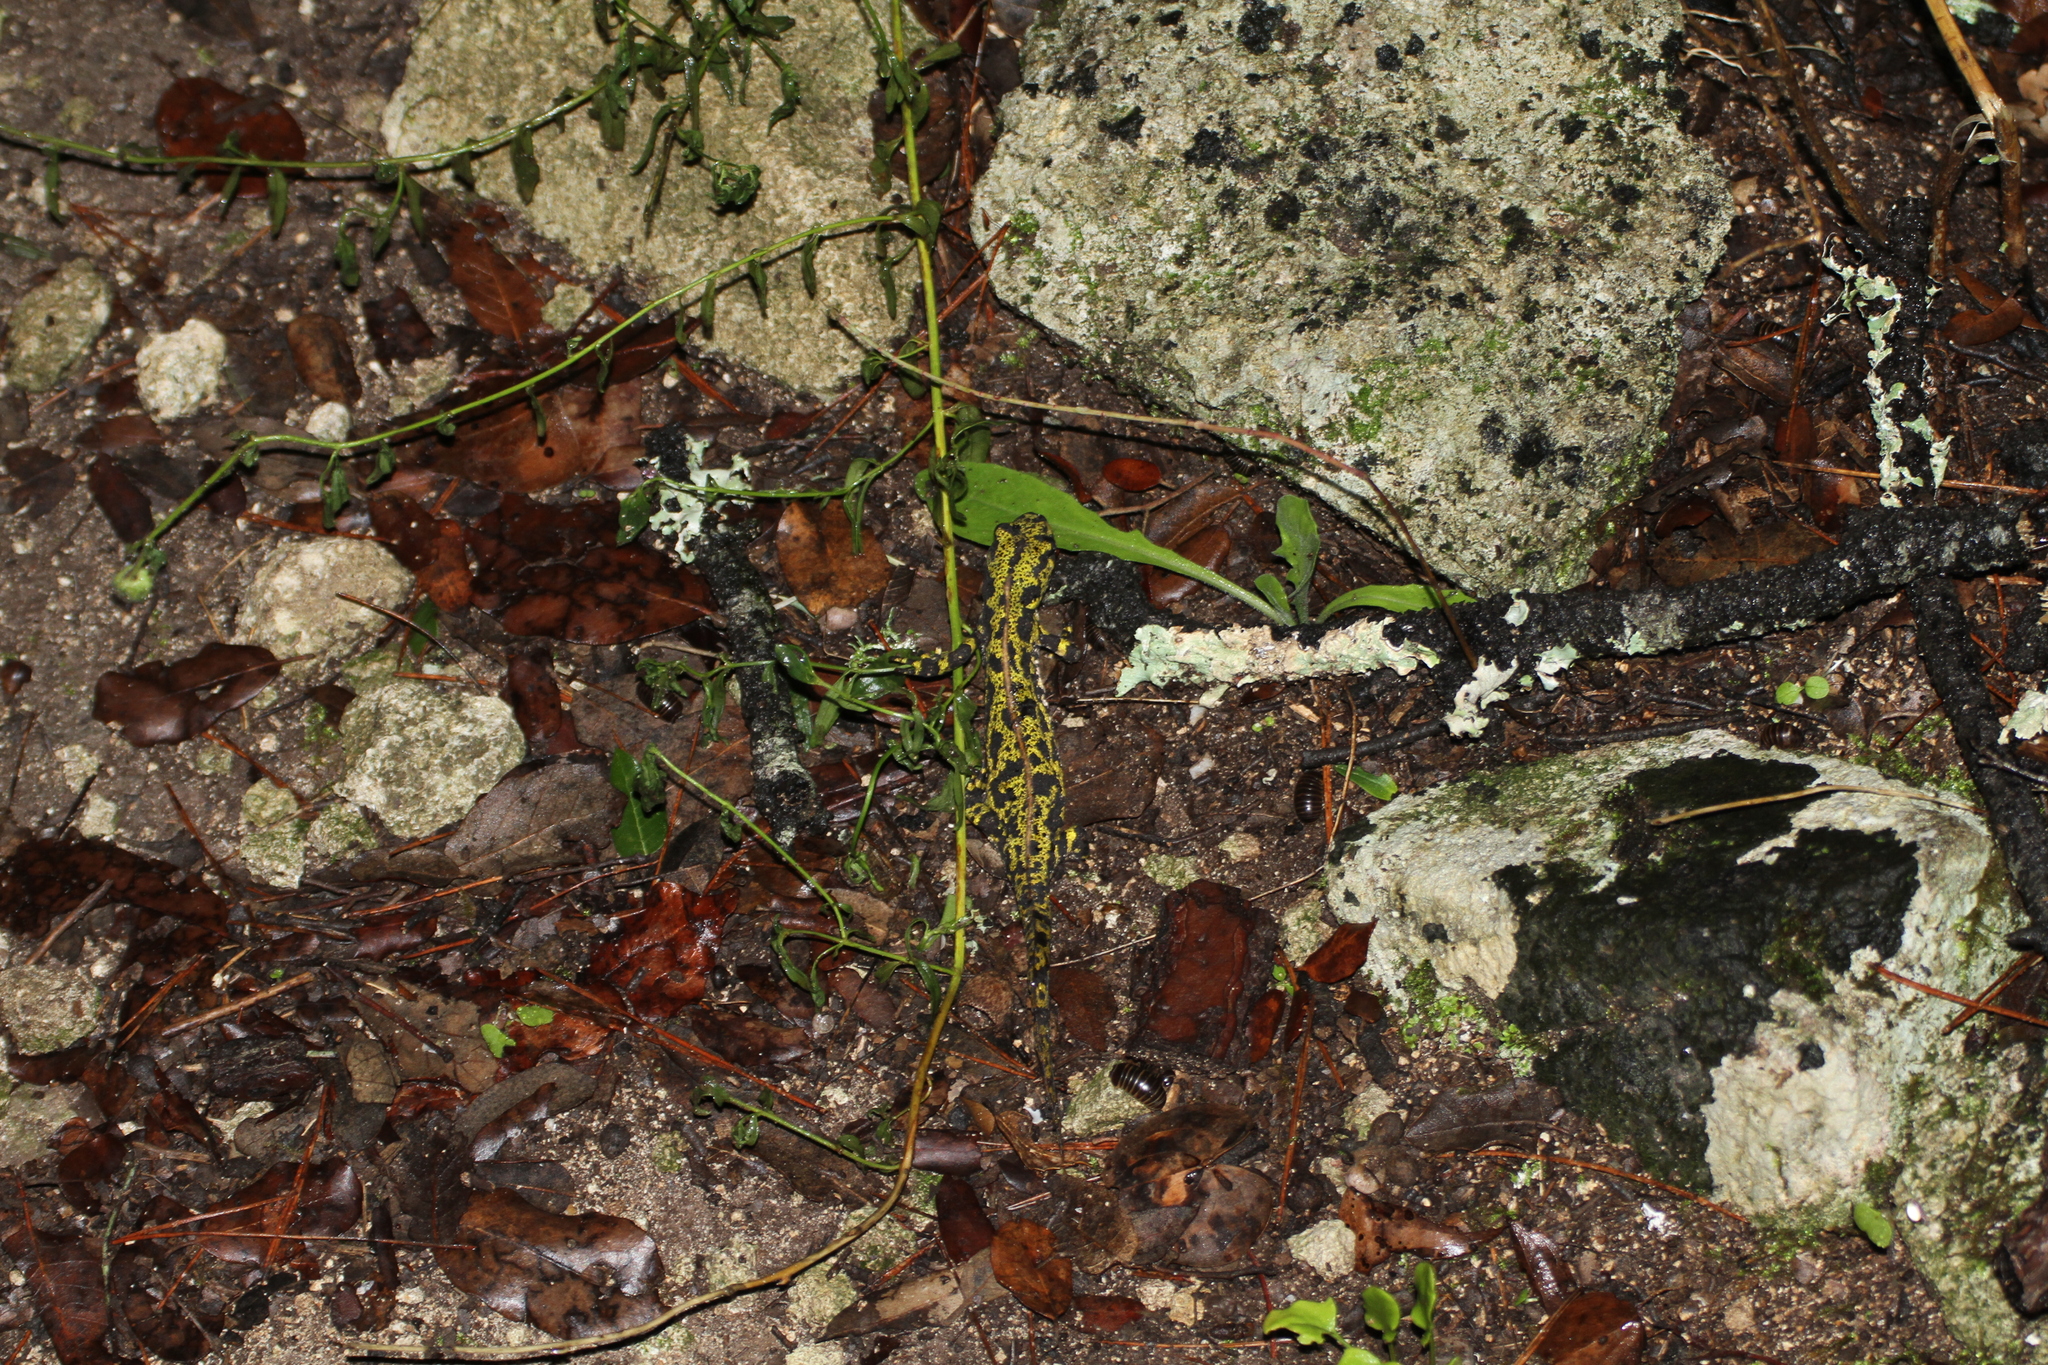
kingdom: Animalia
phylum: Chordata
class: Amphibia
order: Caudata
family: Salamandridae
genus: Triturus
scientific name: Triturus marmoratus
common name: Marbled newt
